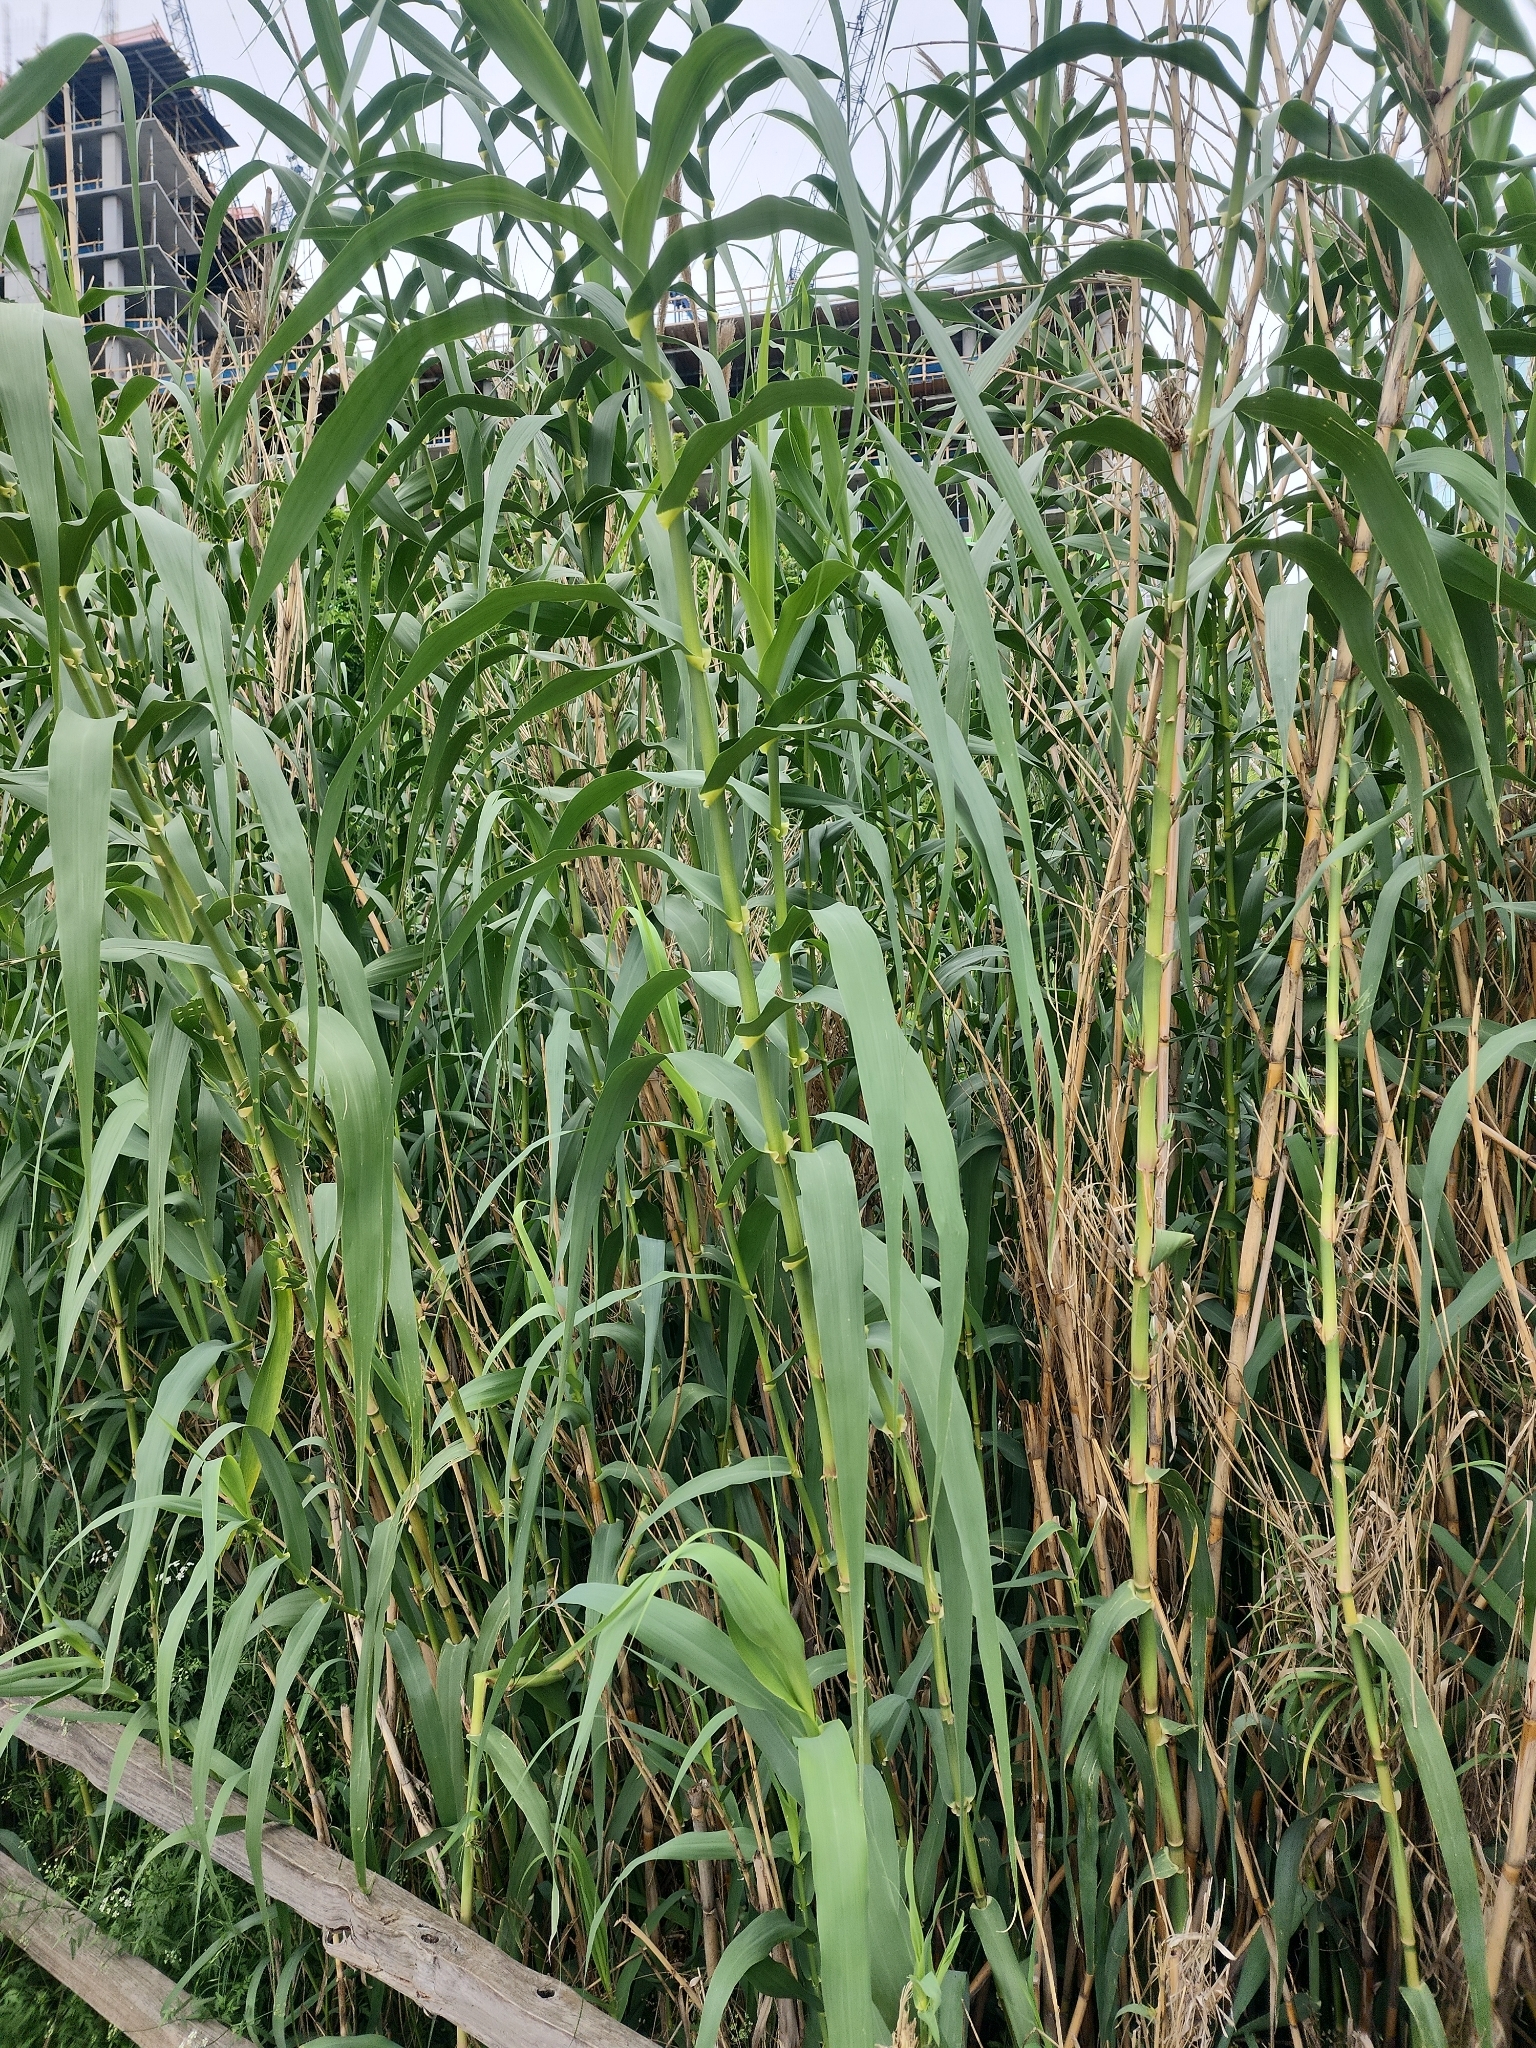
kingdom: Plantae
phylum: Tracheophyta
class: Liliopsida
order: Poales
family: Poaceae
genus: Arundo
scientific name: Arundo donax
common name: Giant reed
